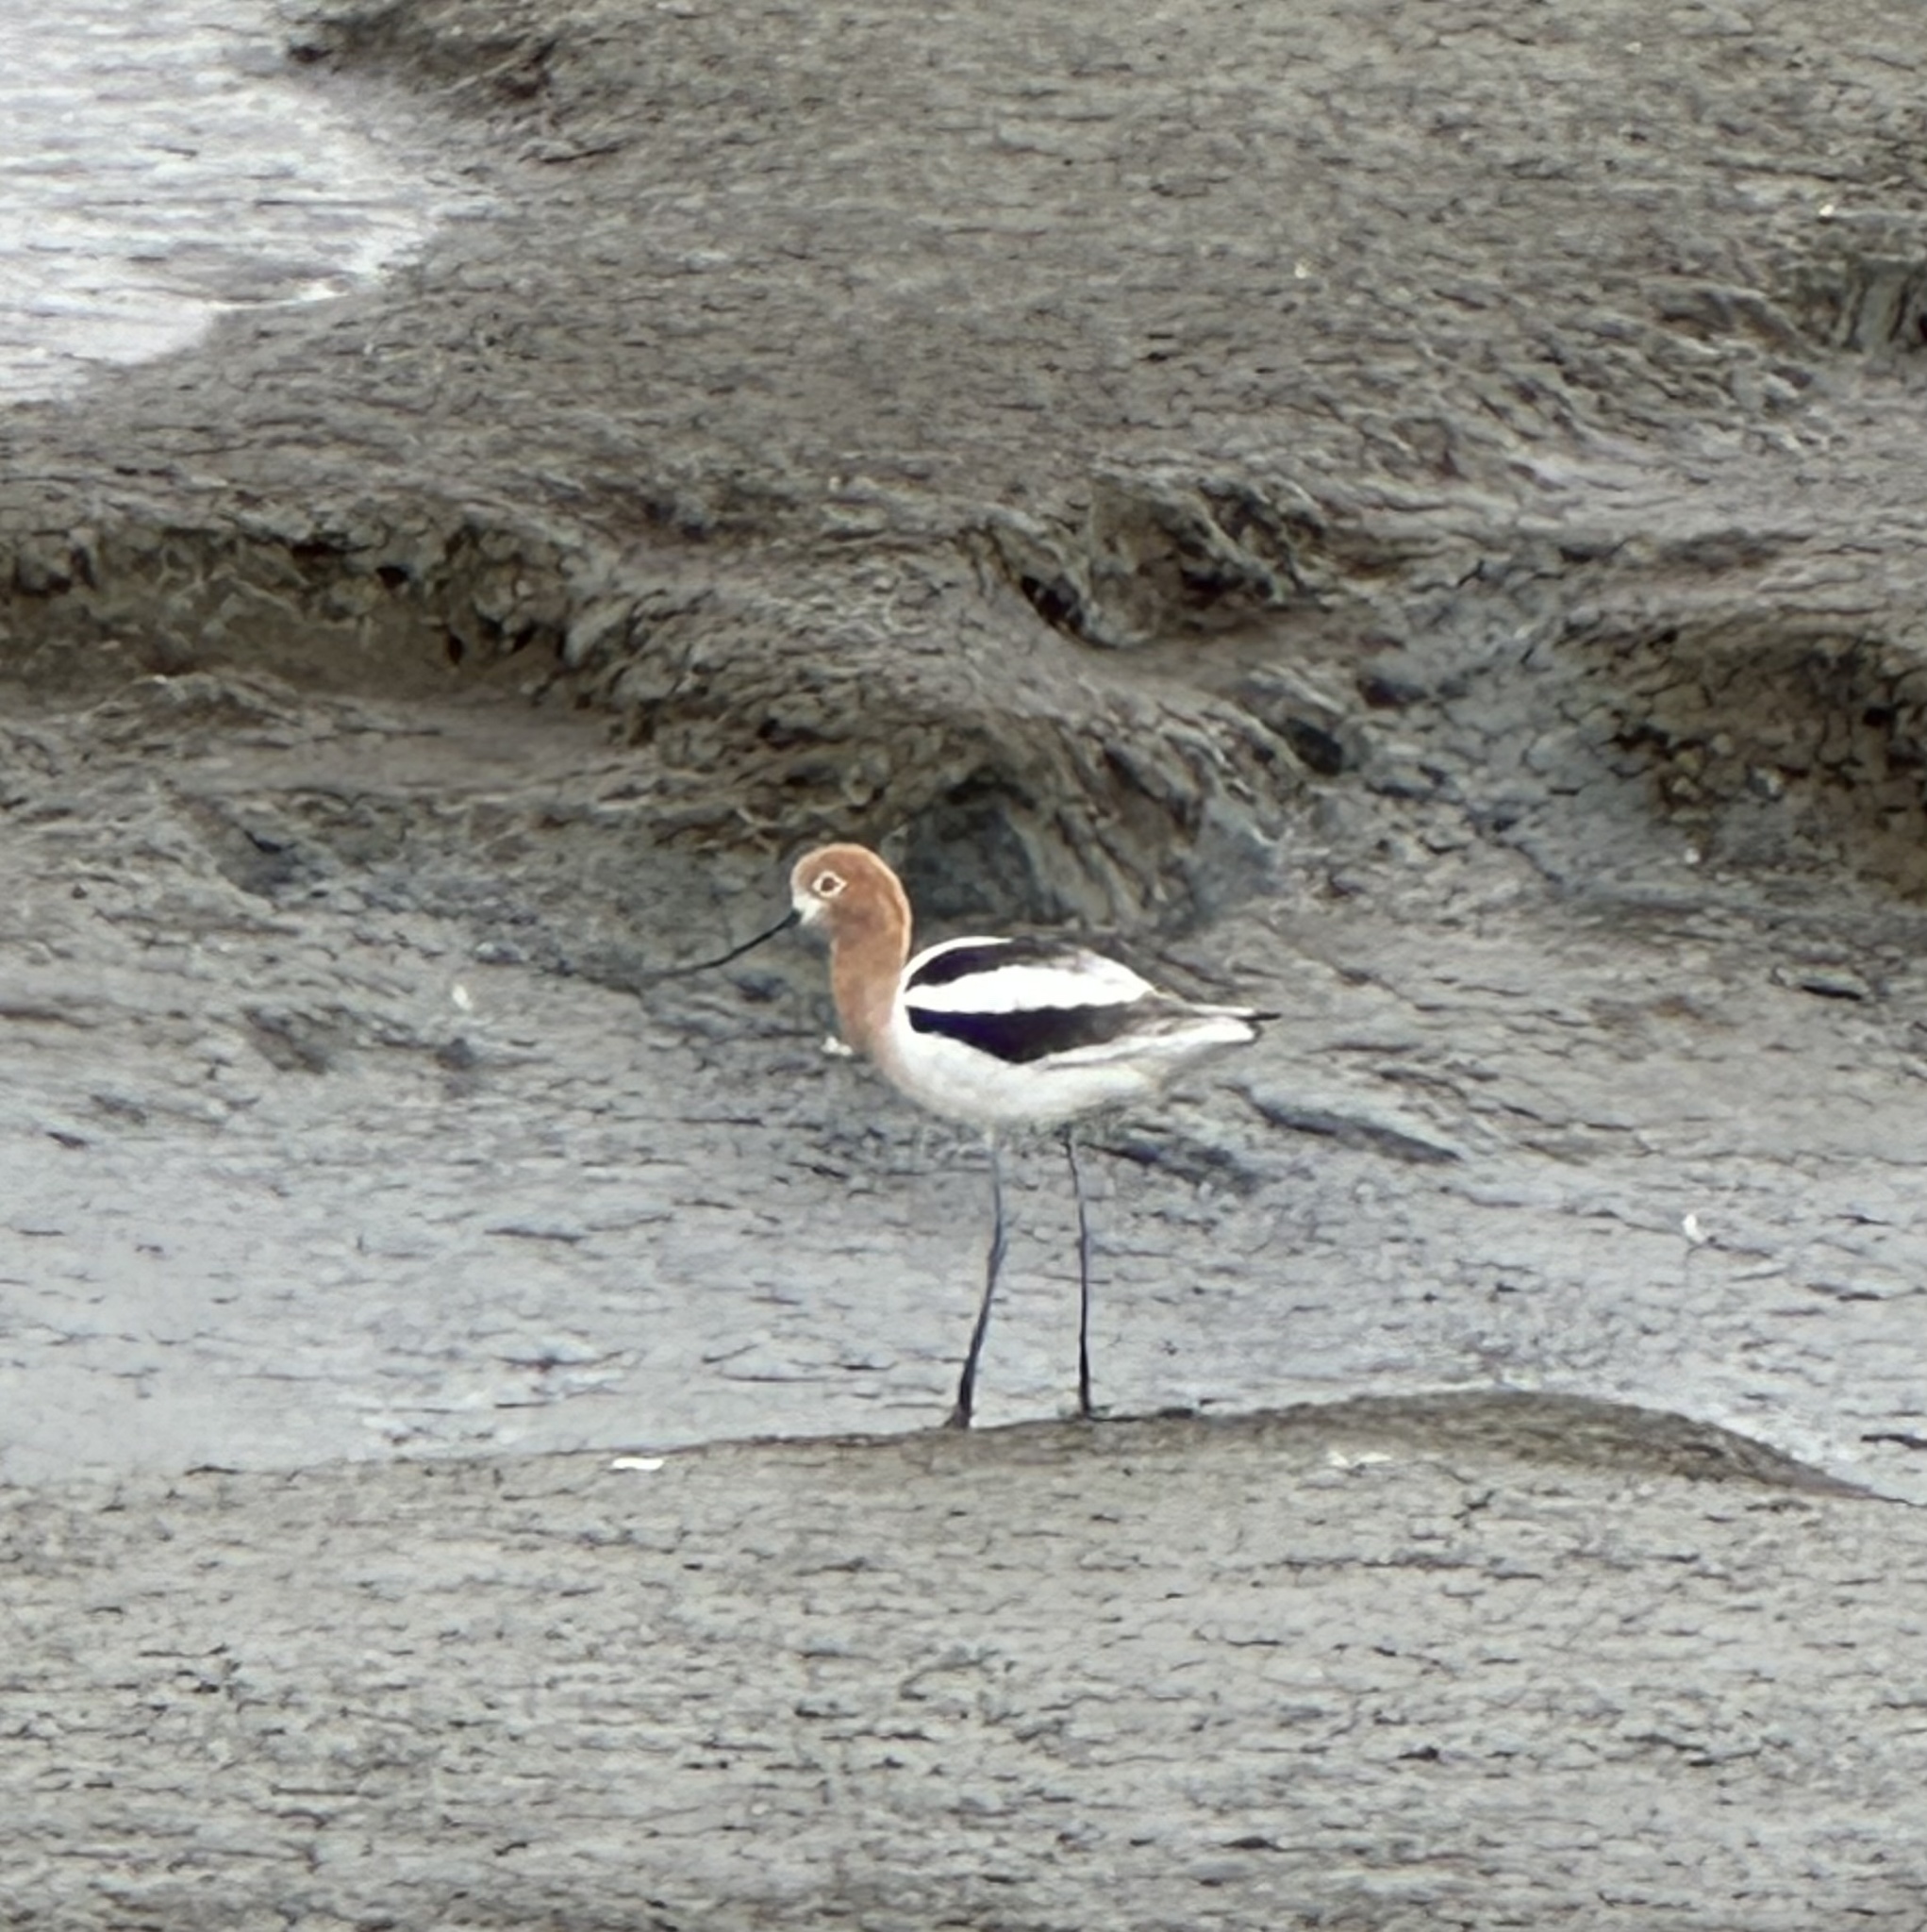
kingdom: Animalia
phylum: Chordata
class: Aves
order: Charadriiformes
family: Recurvirostridae
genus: Recurvirostra
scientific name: Recurvirostra americana
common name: American avocet
